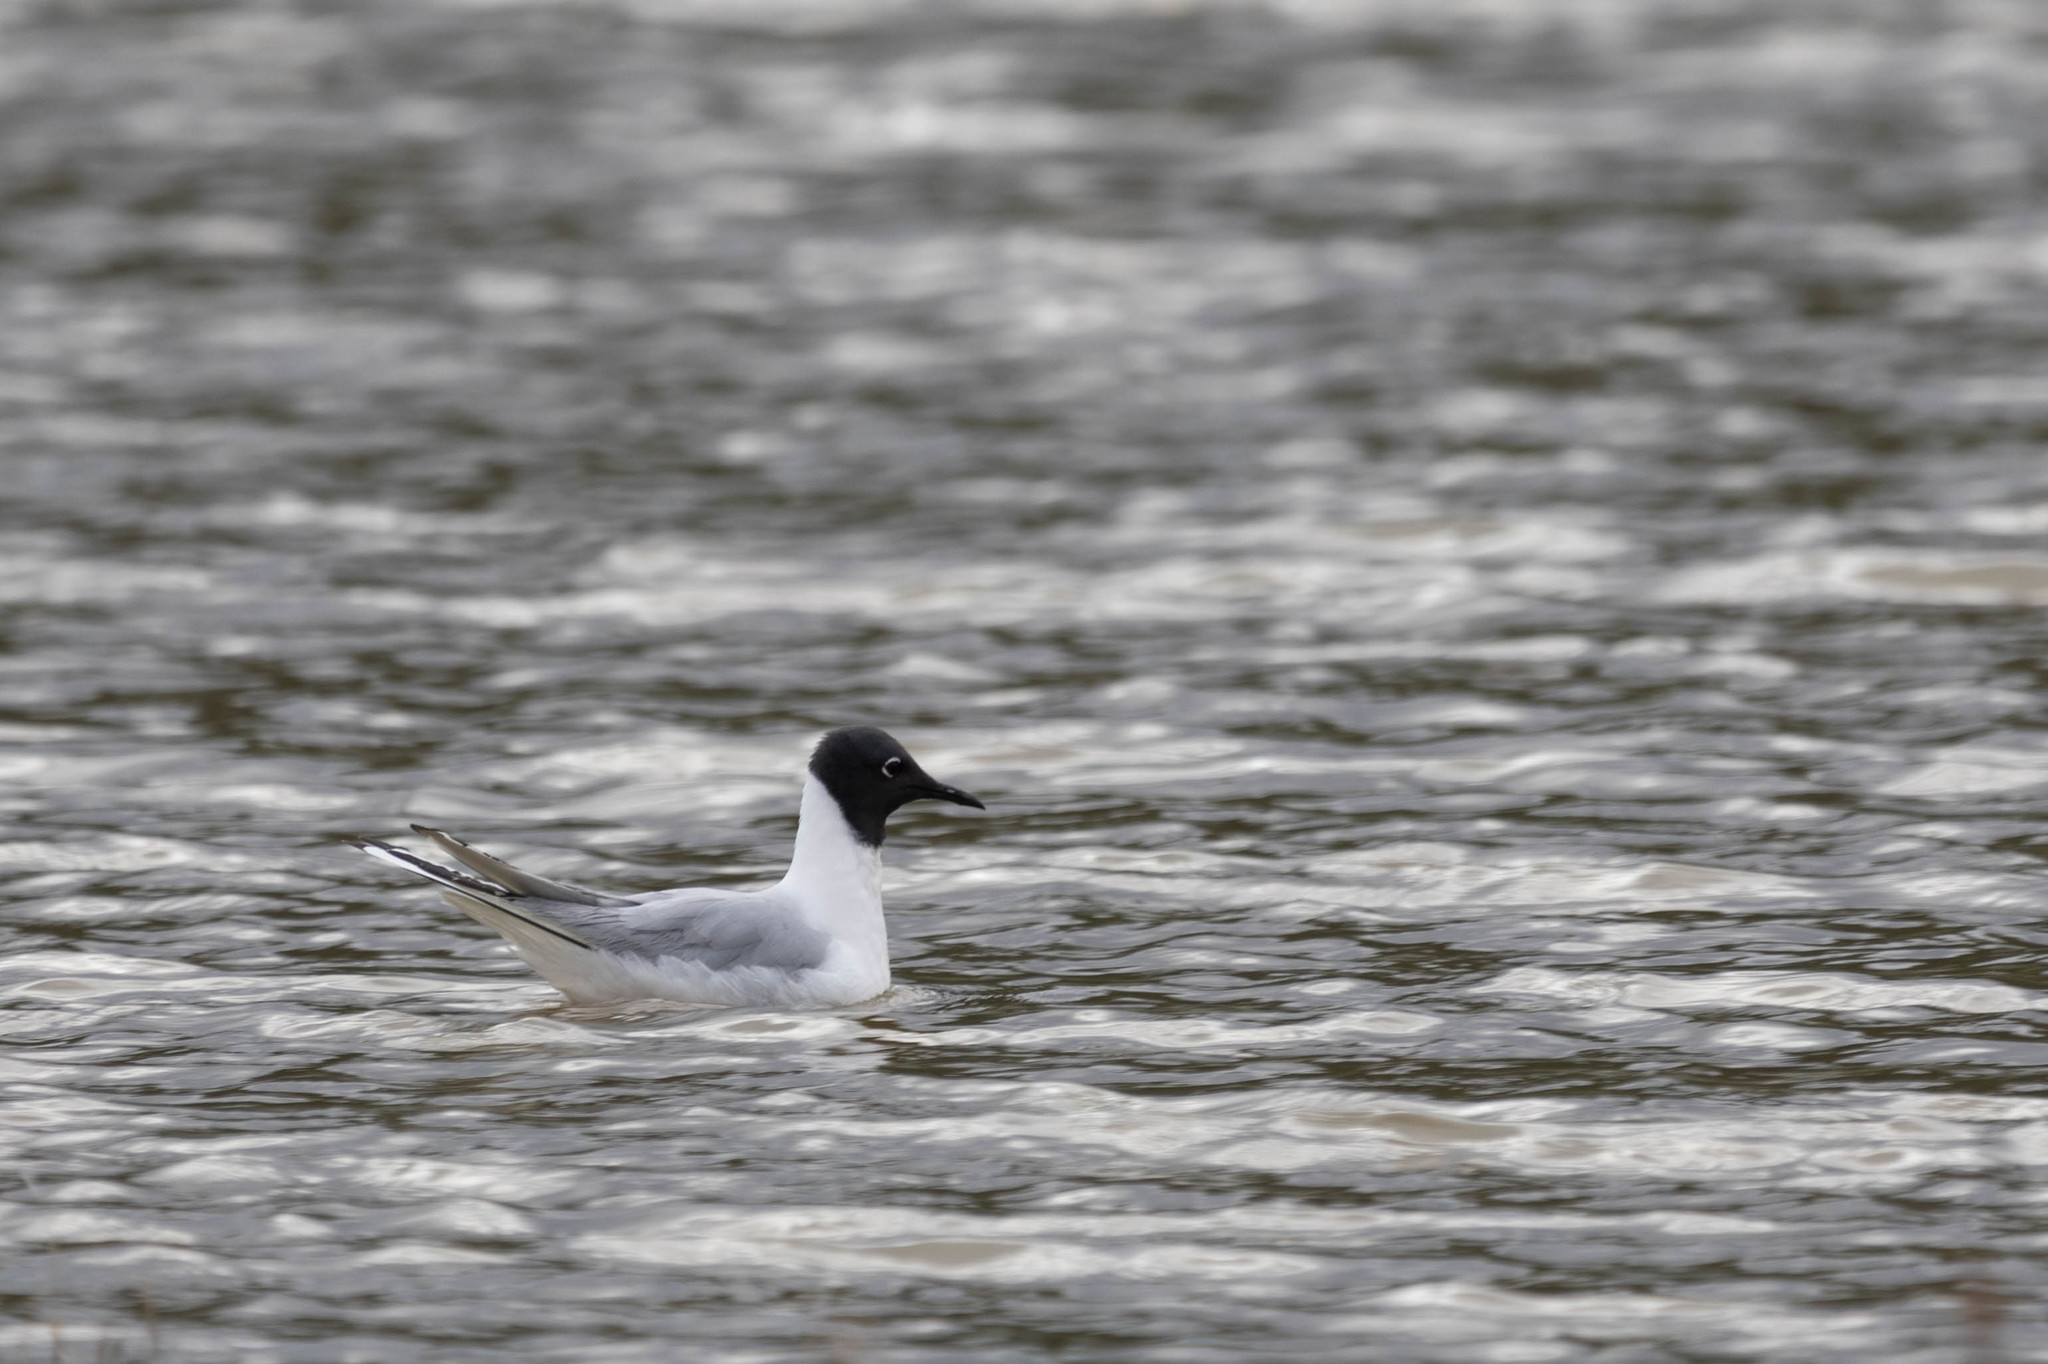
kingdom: Animalia
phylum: Chordata
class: Aves
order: Charadriiformes
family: Laridae
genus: Chroicocephalus
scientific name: Chroicocephalus philadelphia
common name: Bonaparte's gull
